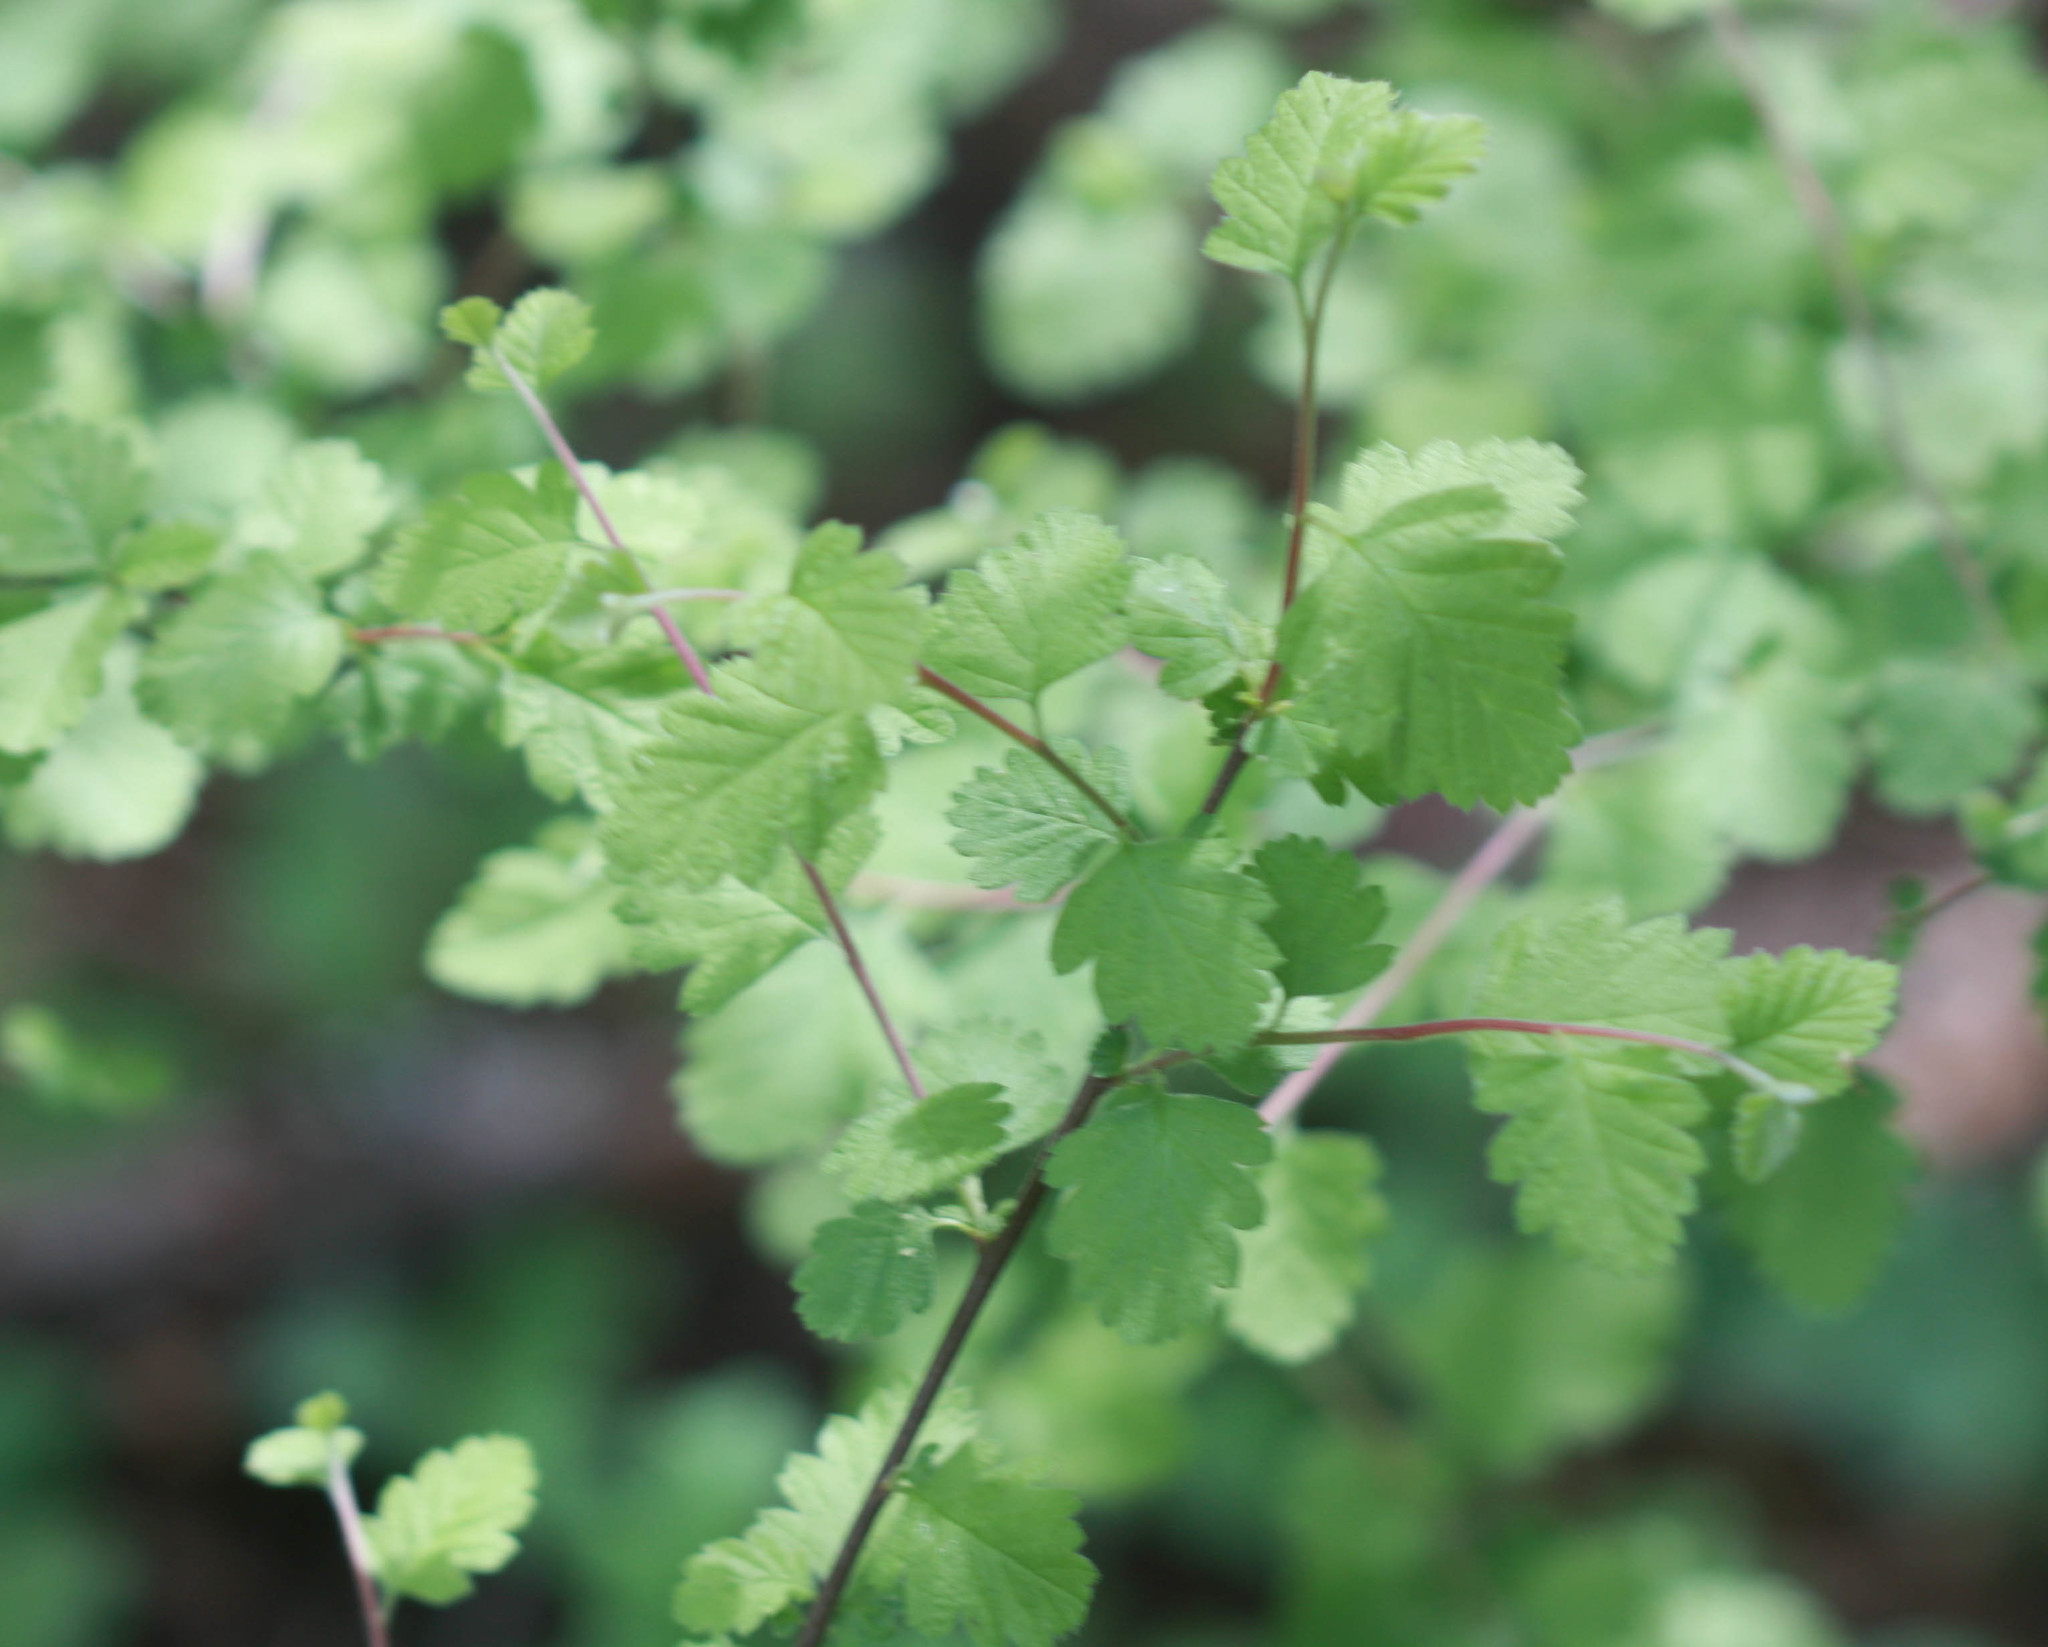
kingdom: Plantae
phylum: Tracheophyta
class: Magnoliopsida
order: Rosales
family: Rosaceae
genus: Holodiscus
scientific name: Holodiscus discolor
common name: Oceanspray
